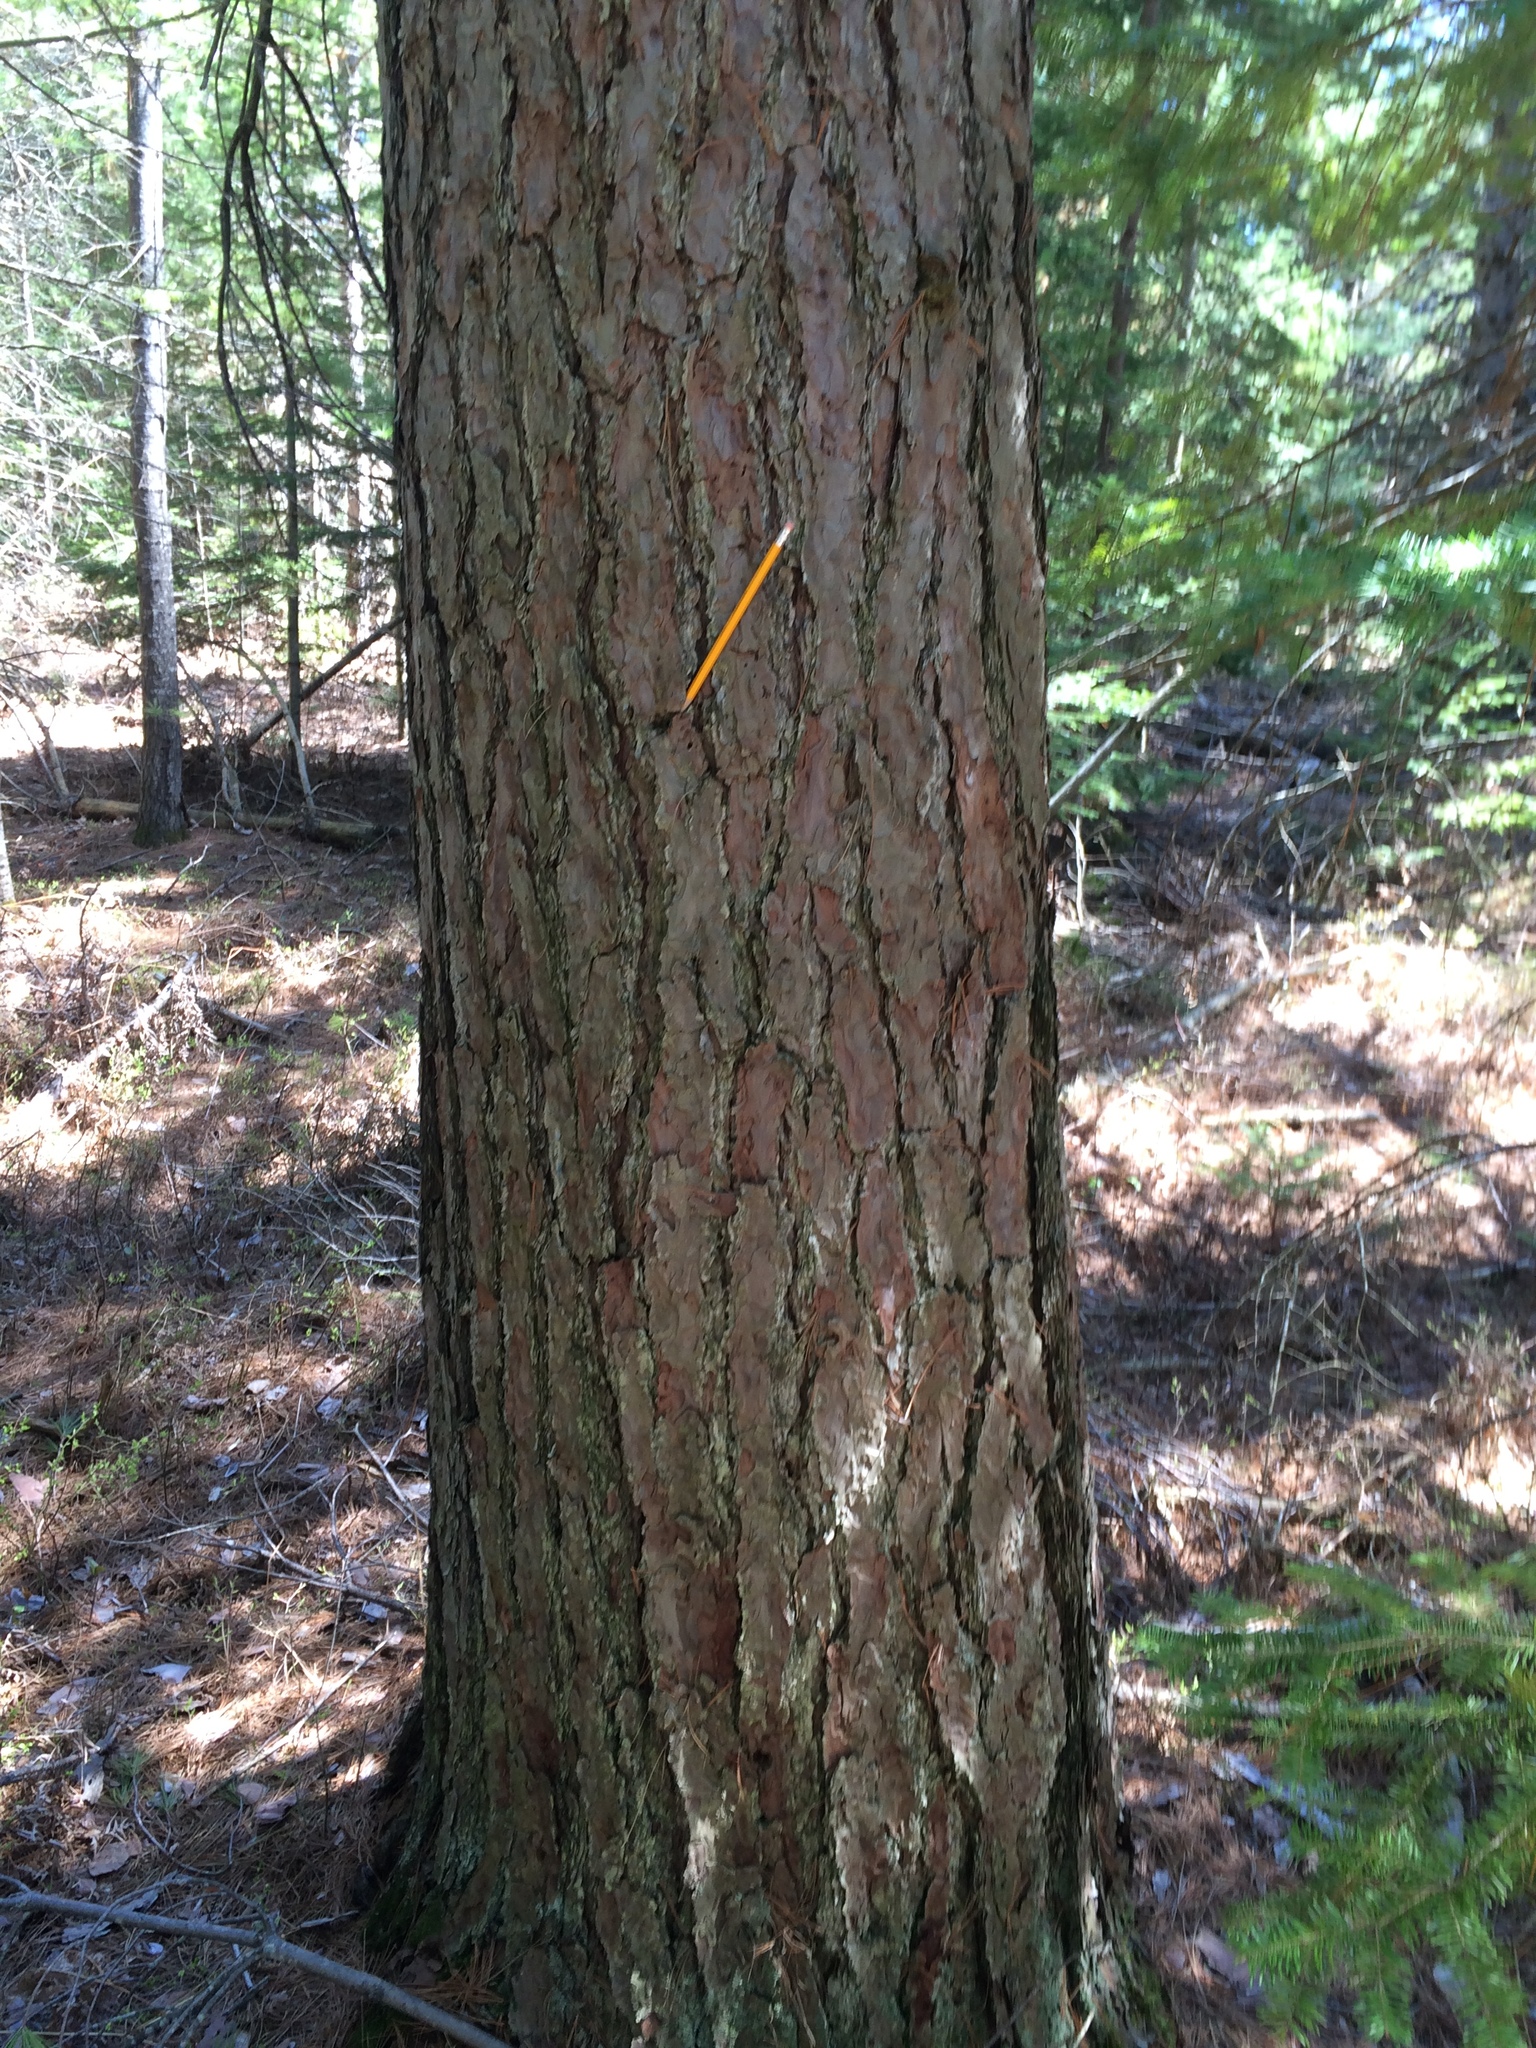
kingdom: Plantae
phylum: Tracheophyta
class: Pinopsida
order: Pinales
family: Pinaceae
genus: Pinus
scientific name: Pinus resinosa
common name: Norway pine
